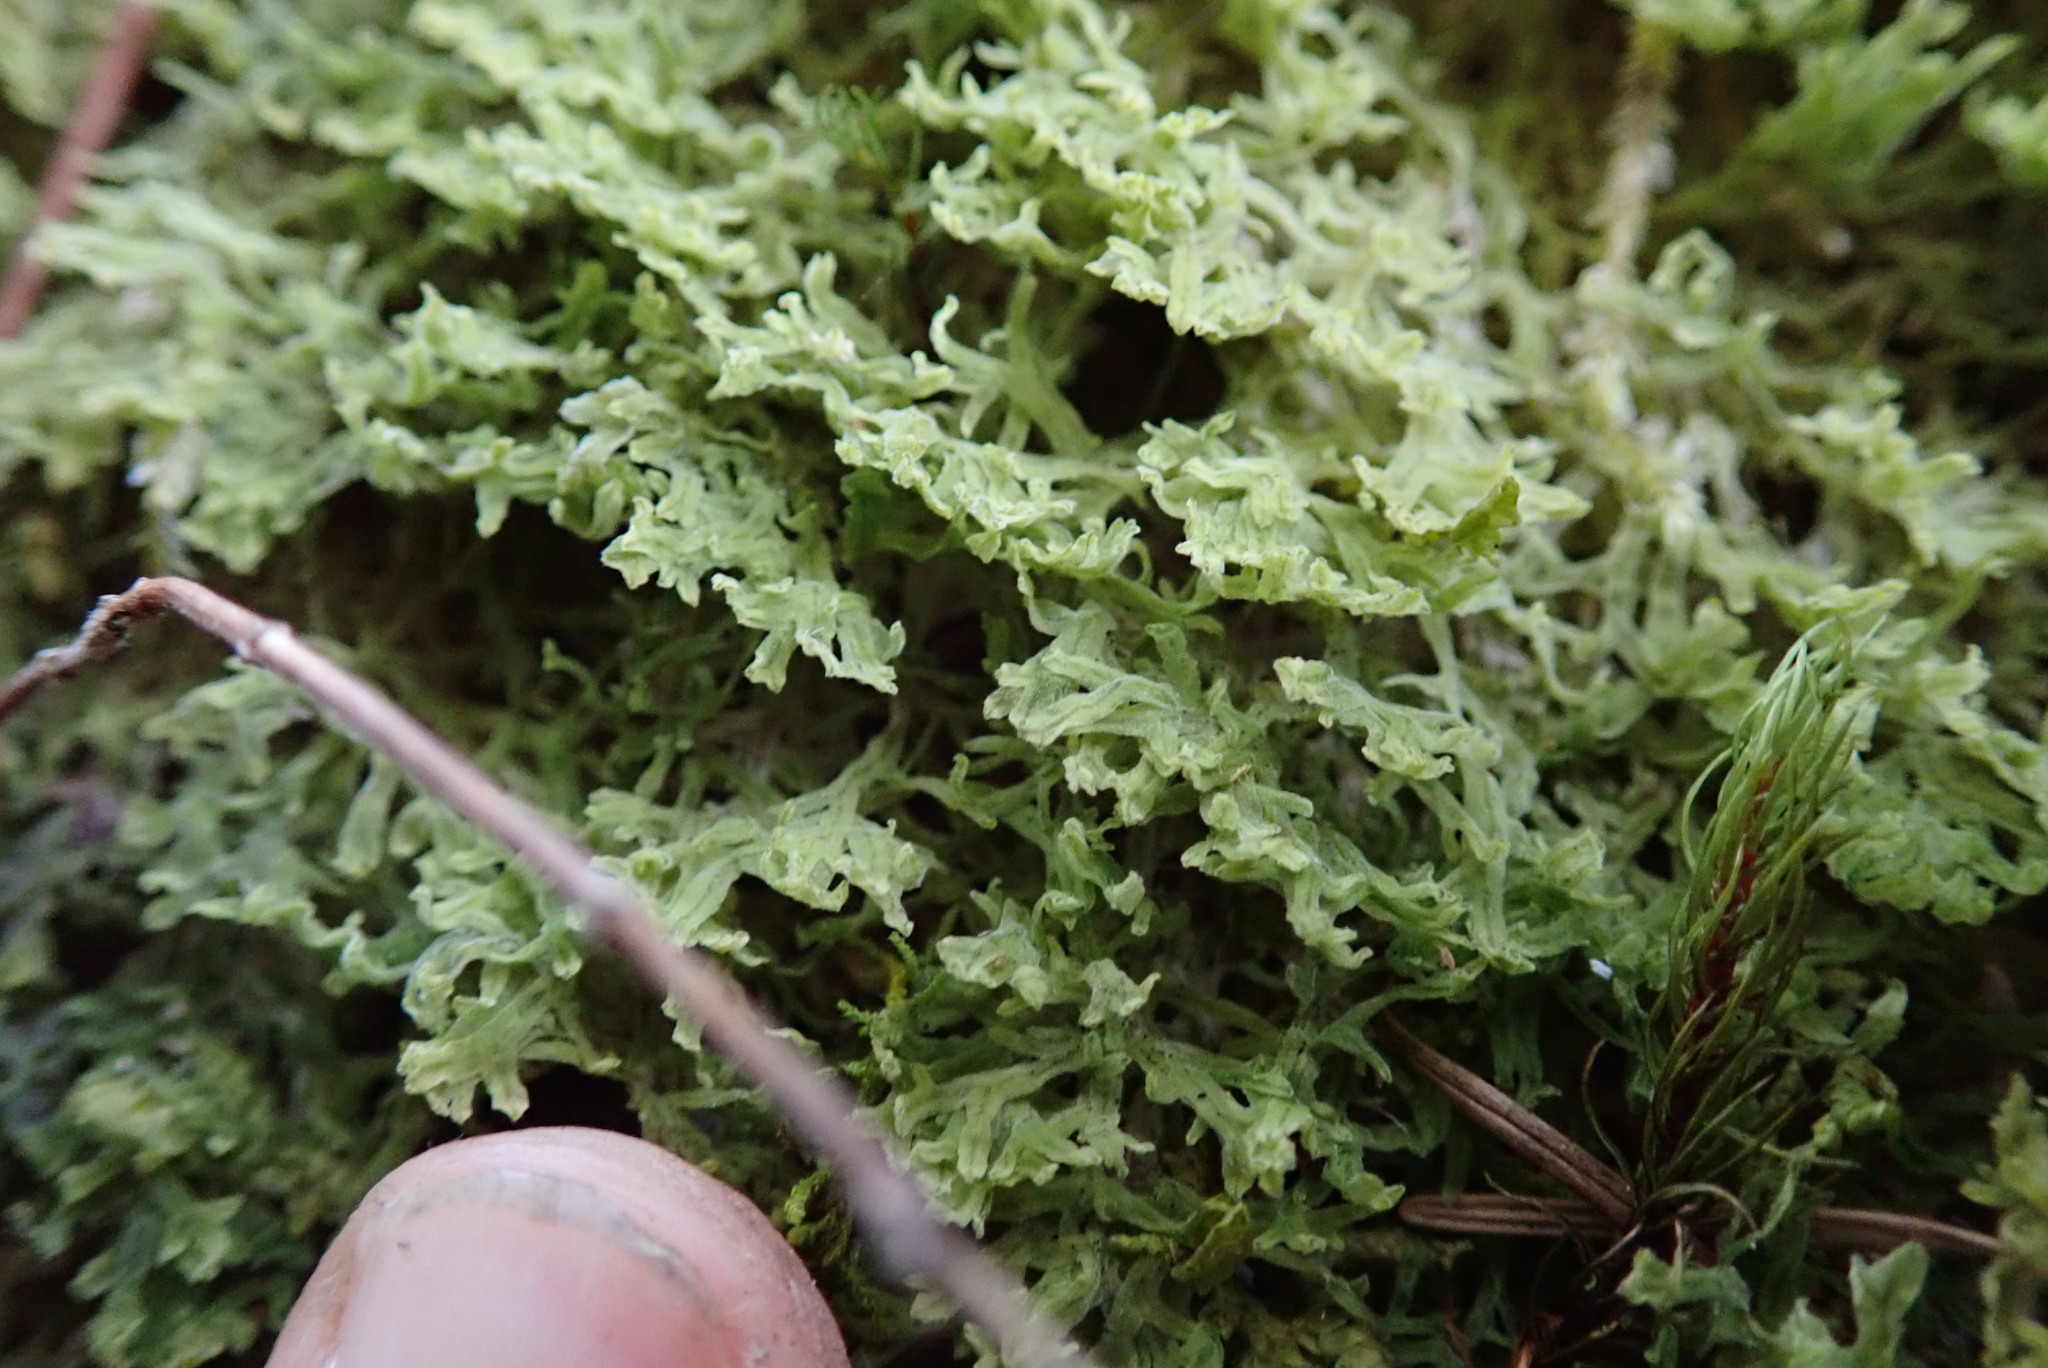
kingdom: Plantae
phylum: Marchantiophyta
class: Jungermanniopsida
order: Metzgeriales
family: Metzgeriaceae
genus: Metzgeria
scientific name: Metzgeria pubescens
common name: Downy veilwort
